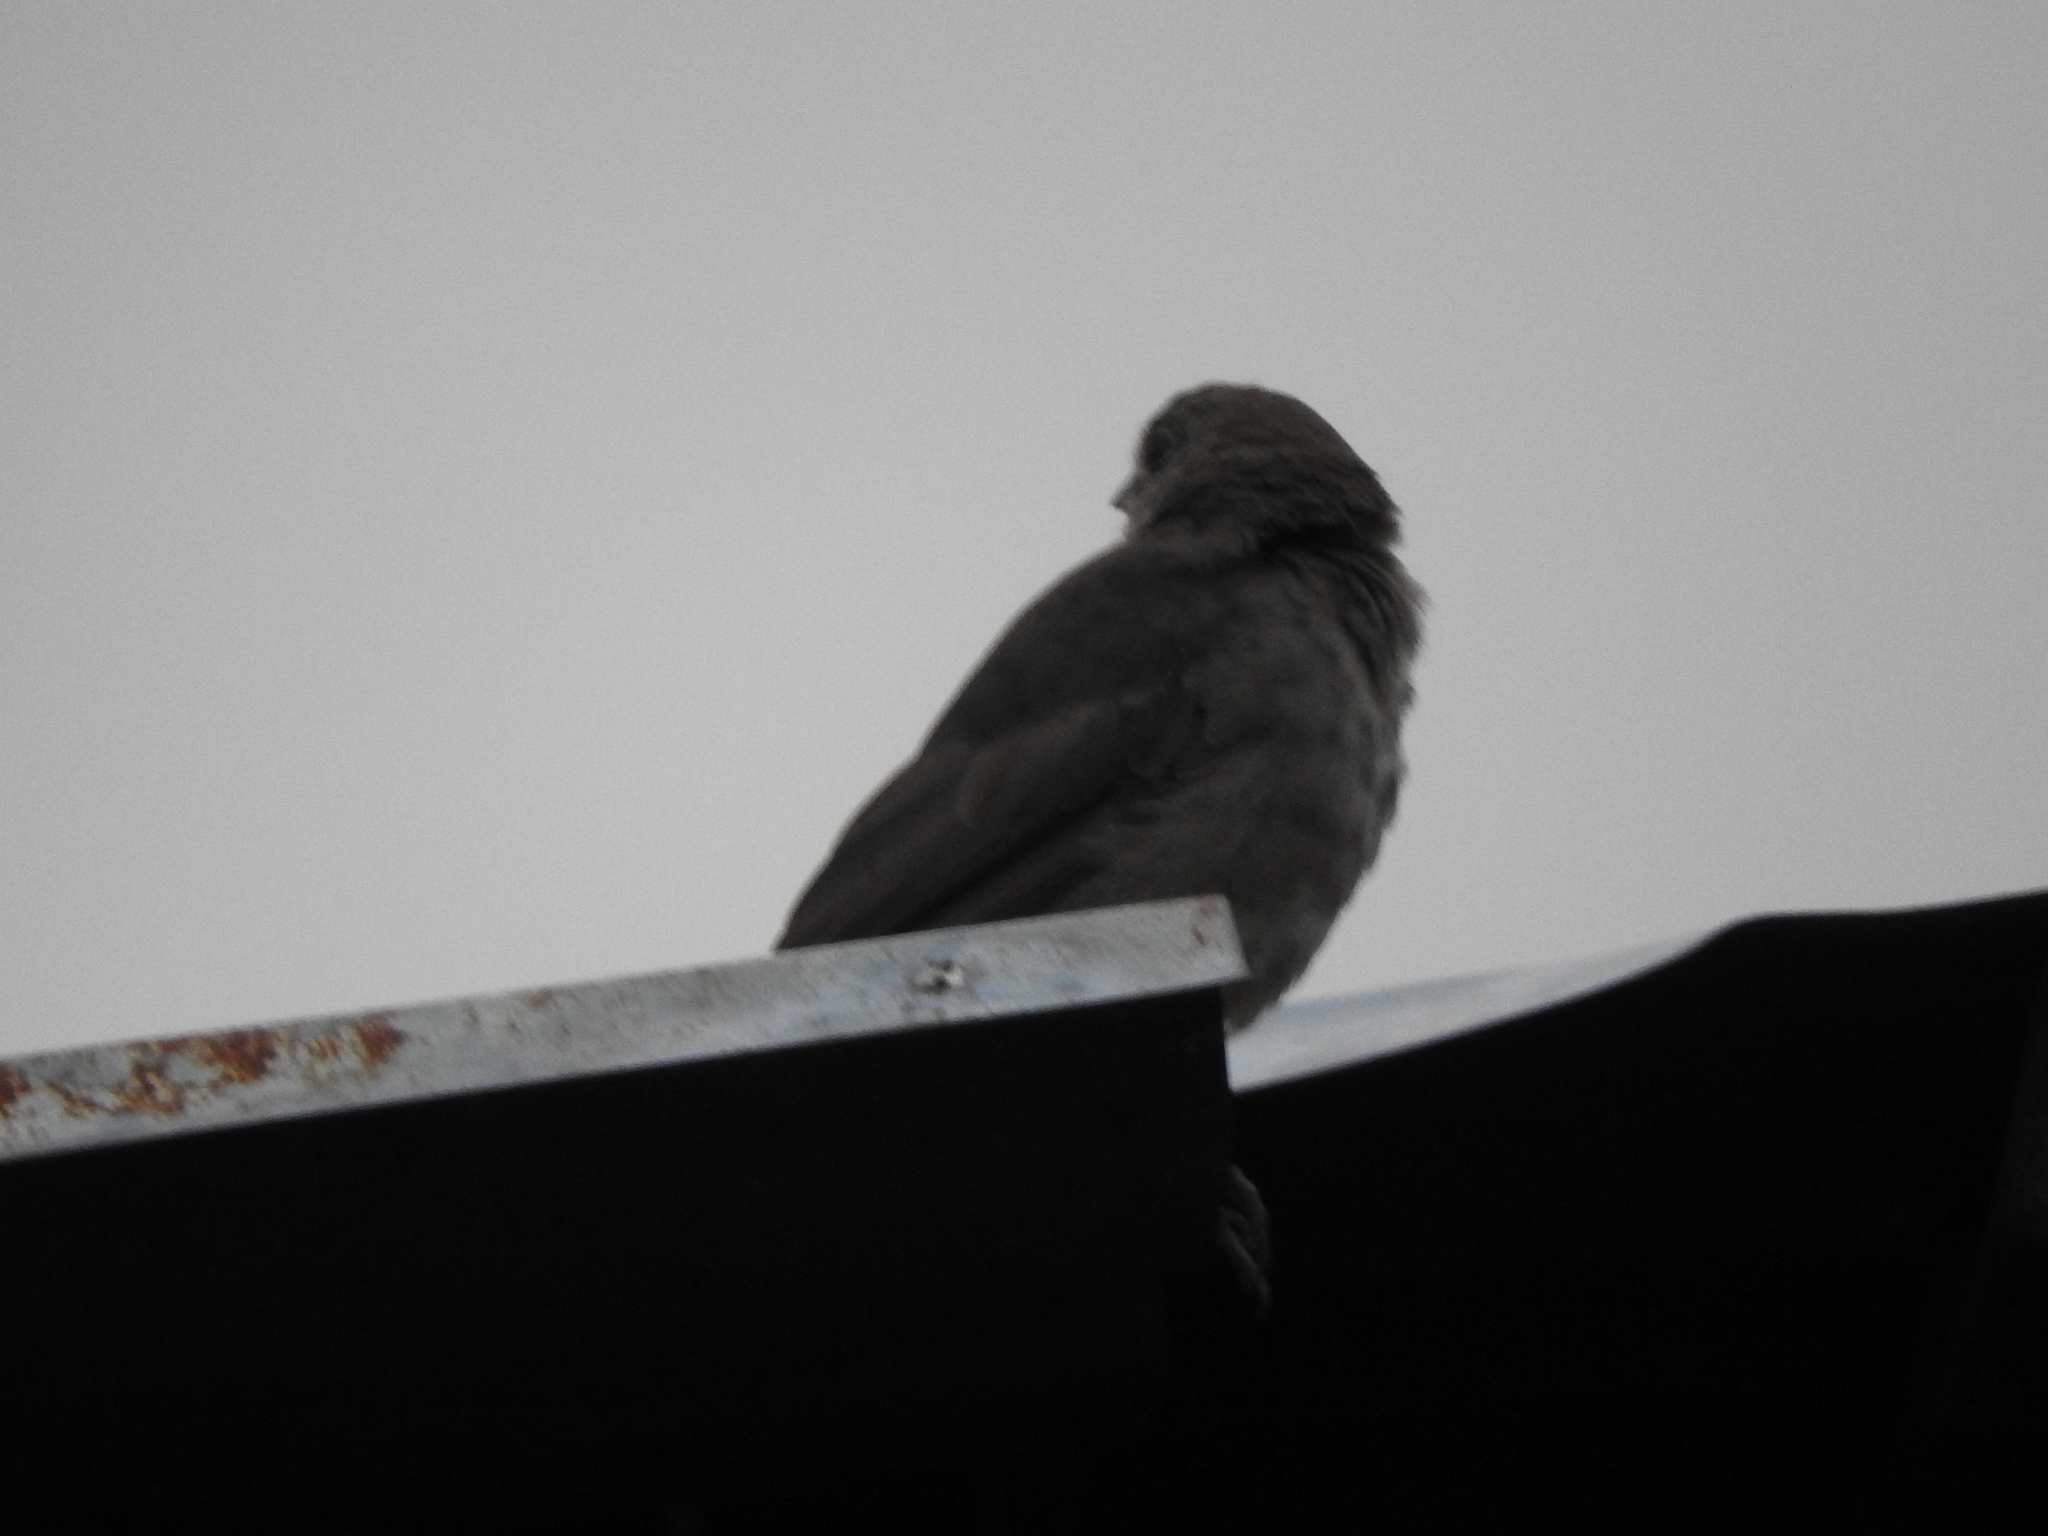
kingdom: Animalia
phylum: Chordata
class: Aves
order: Passeriformes
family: Passerellidae
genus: Melozone
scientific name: Melozone fusca
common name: Canyon towhee
